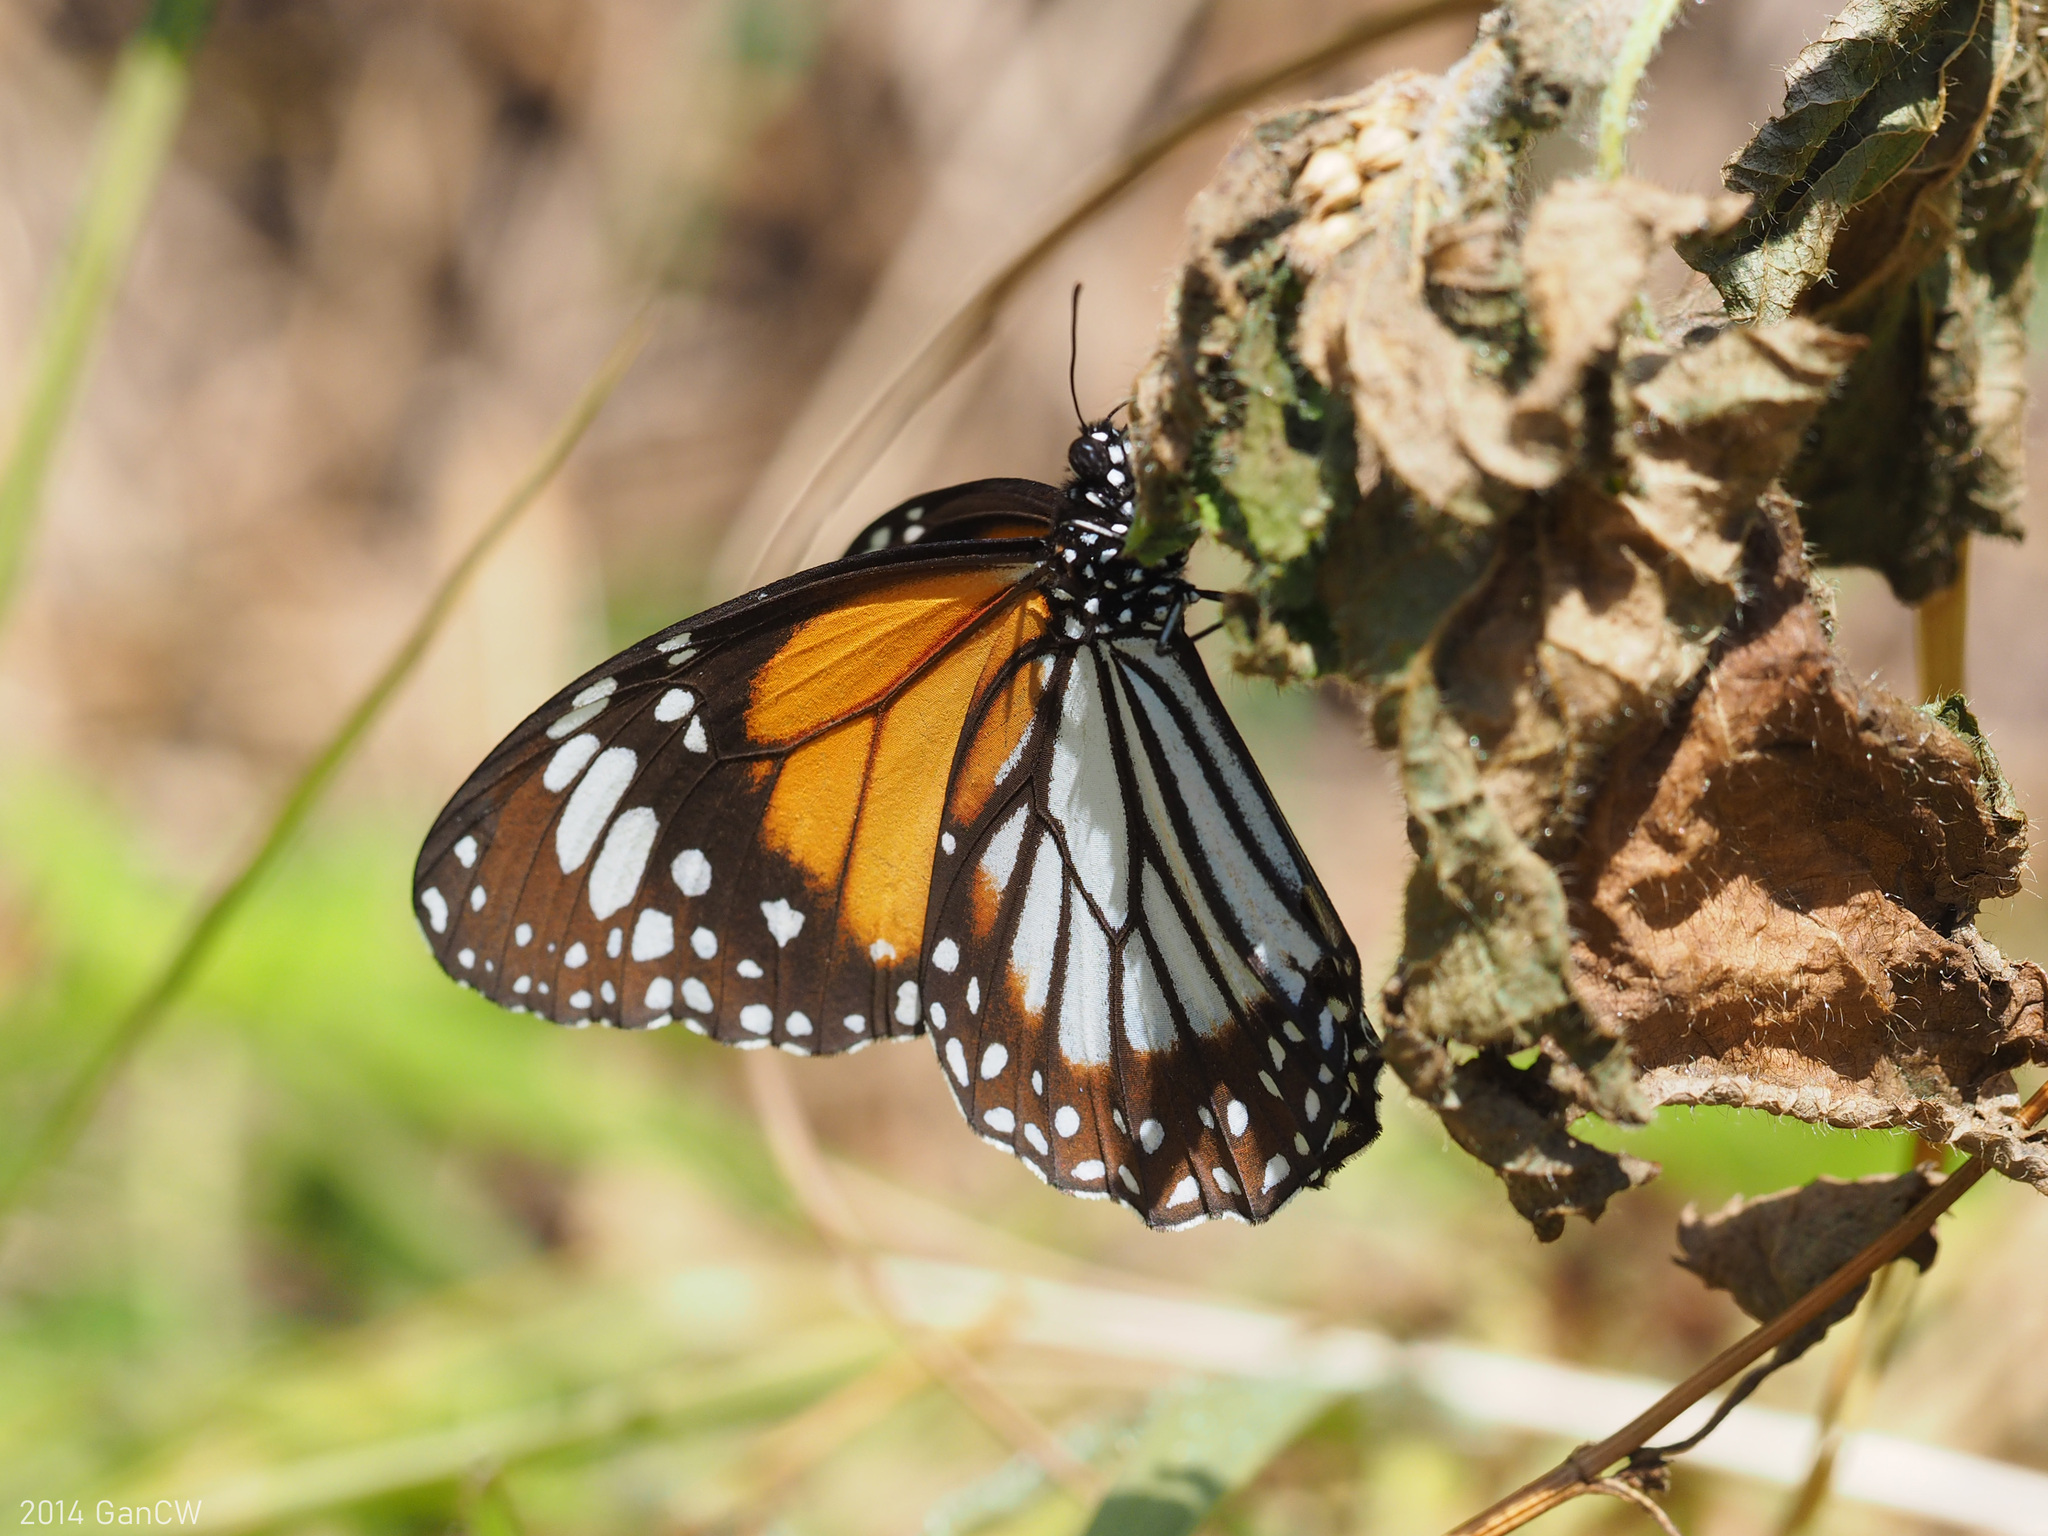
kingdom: Animalia
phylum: Arthropoda
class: Insecta
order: Lepidoptera
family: Nymphalidae
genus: Danaus
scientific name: Danaus melanippus
